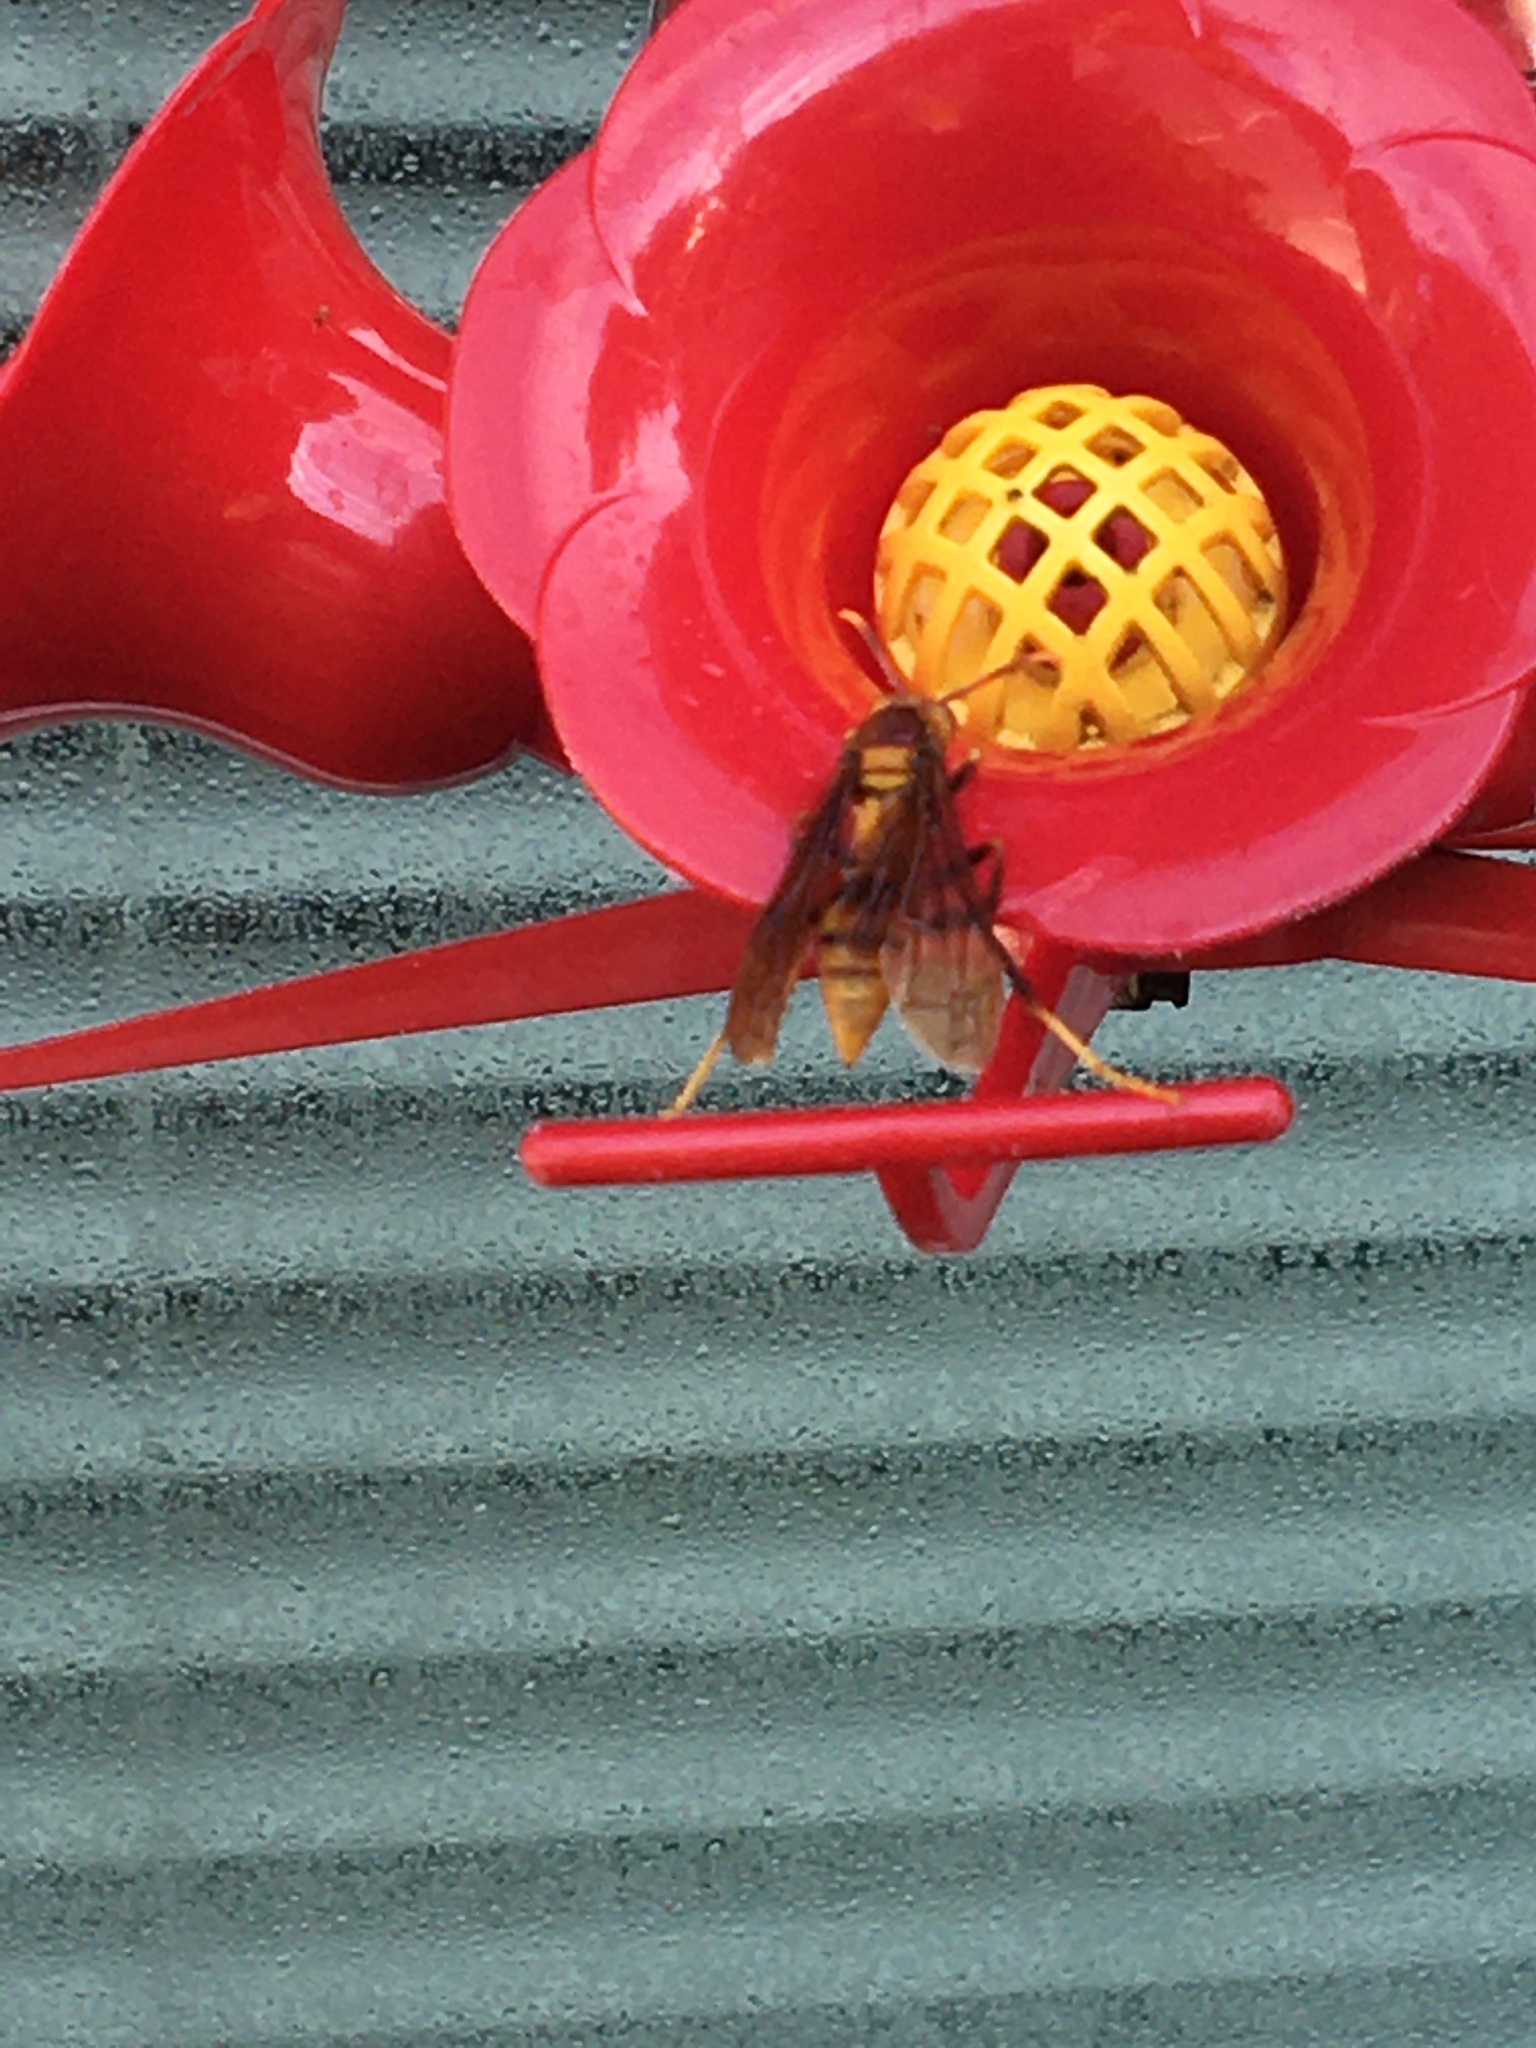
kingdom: Animalia
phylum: Arthropoda
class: Insecta
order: Hymenoptera
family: Eumenidae
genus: Polistes
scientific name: Polistes major
